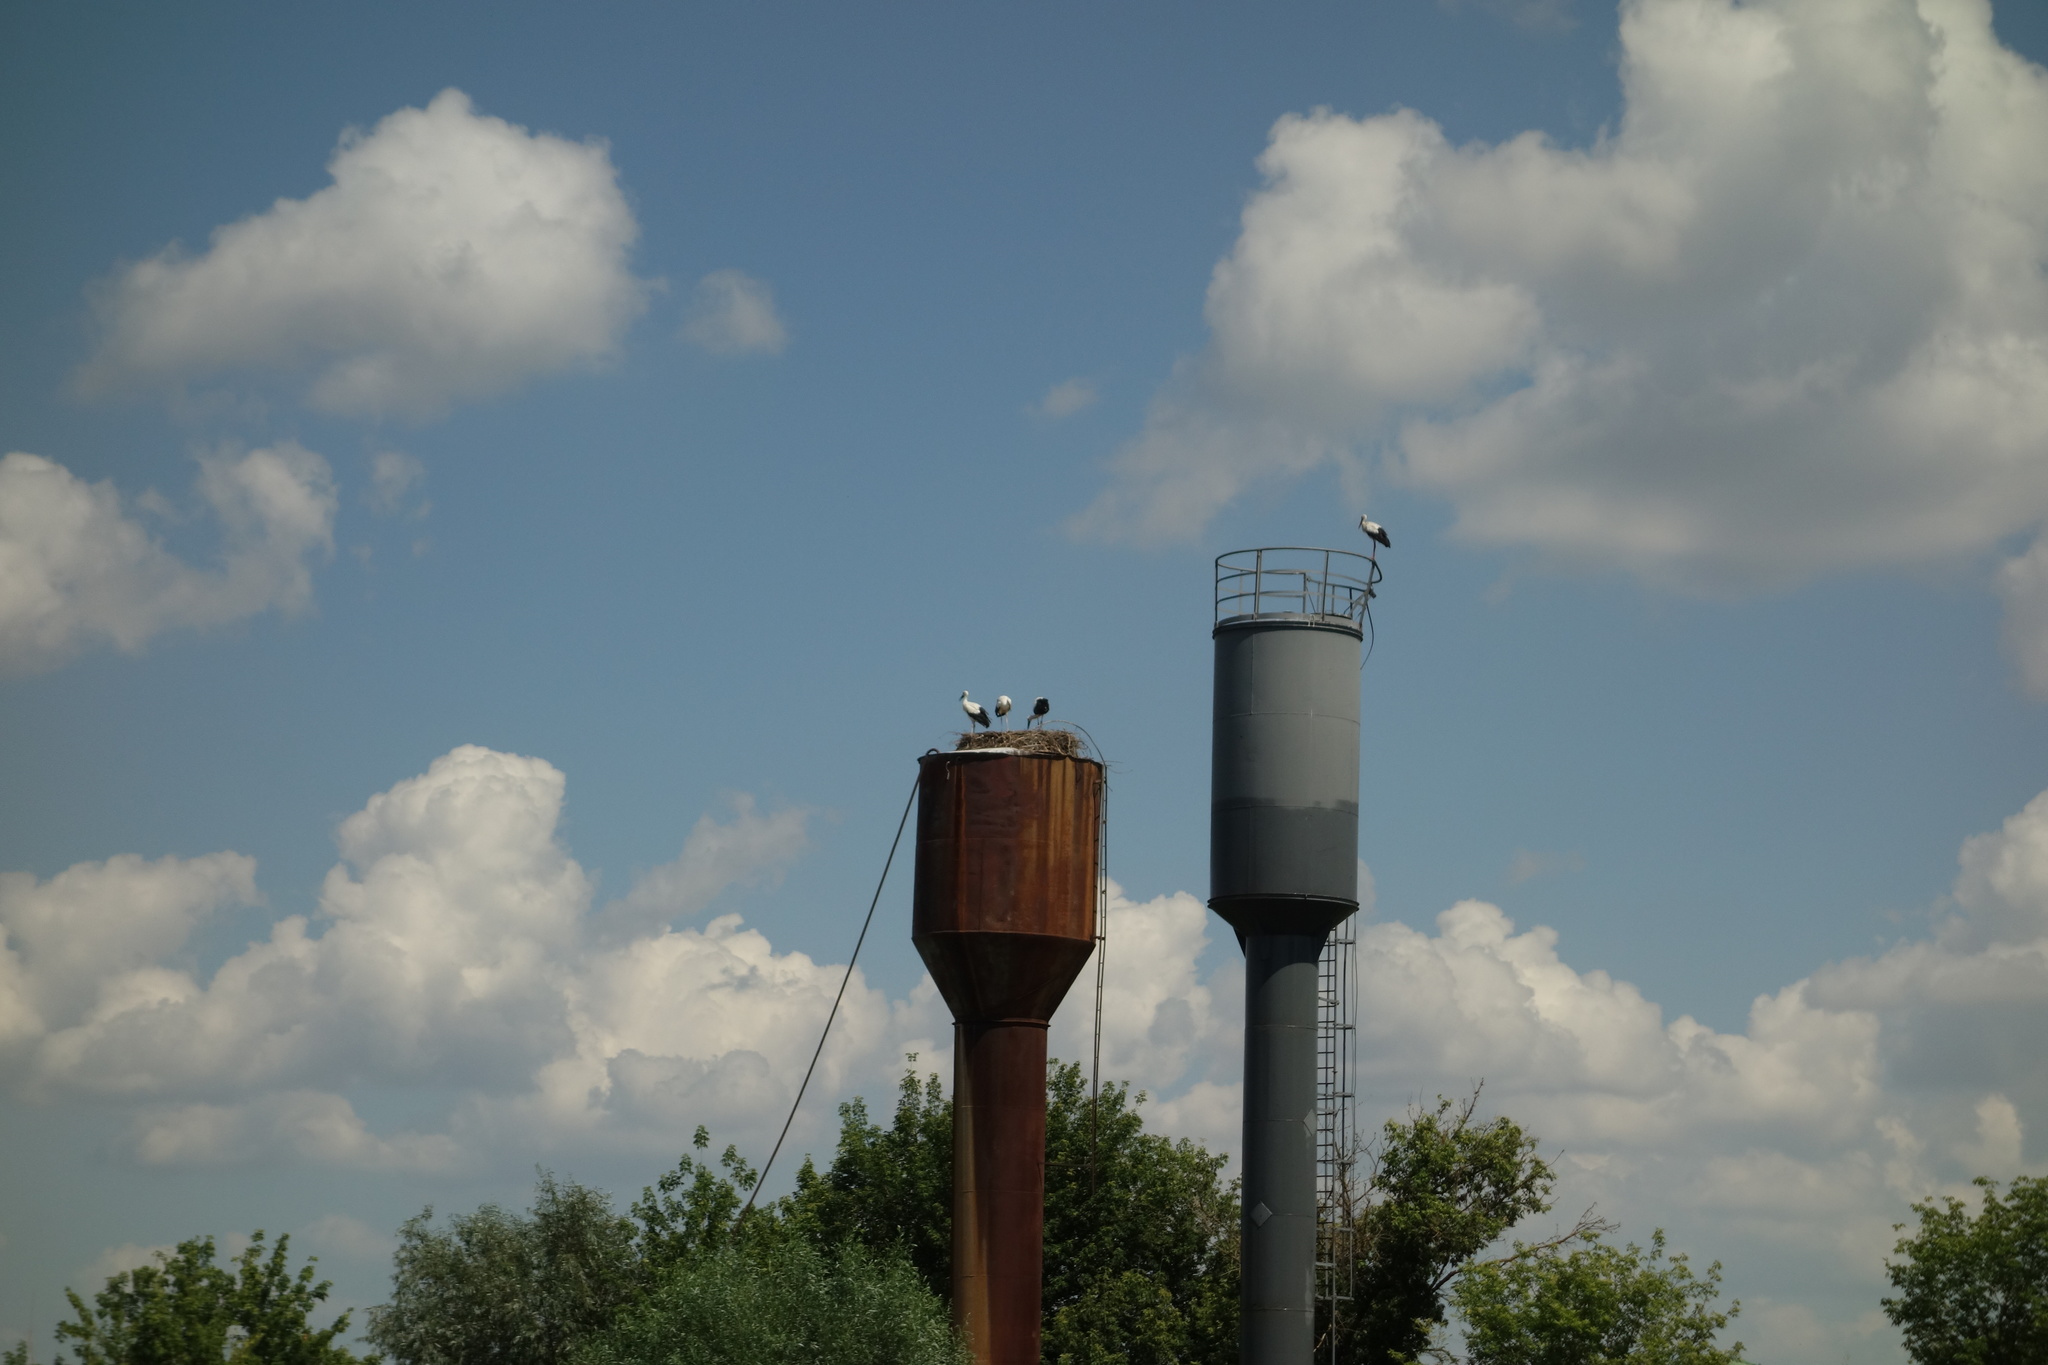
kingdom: Animalia
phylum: Chordata
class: Aves
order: Ciconiiformes
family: Ciconiidae
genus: Ciconia
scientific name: Ciconia ciconia
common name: White stork
